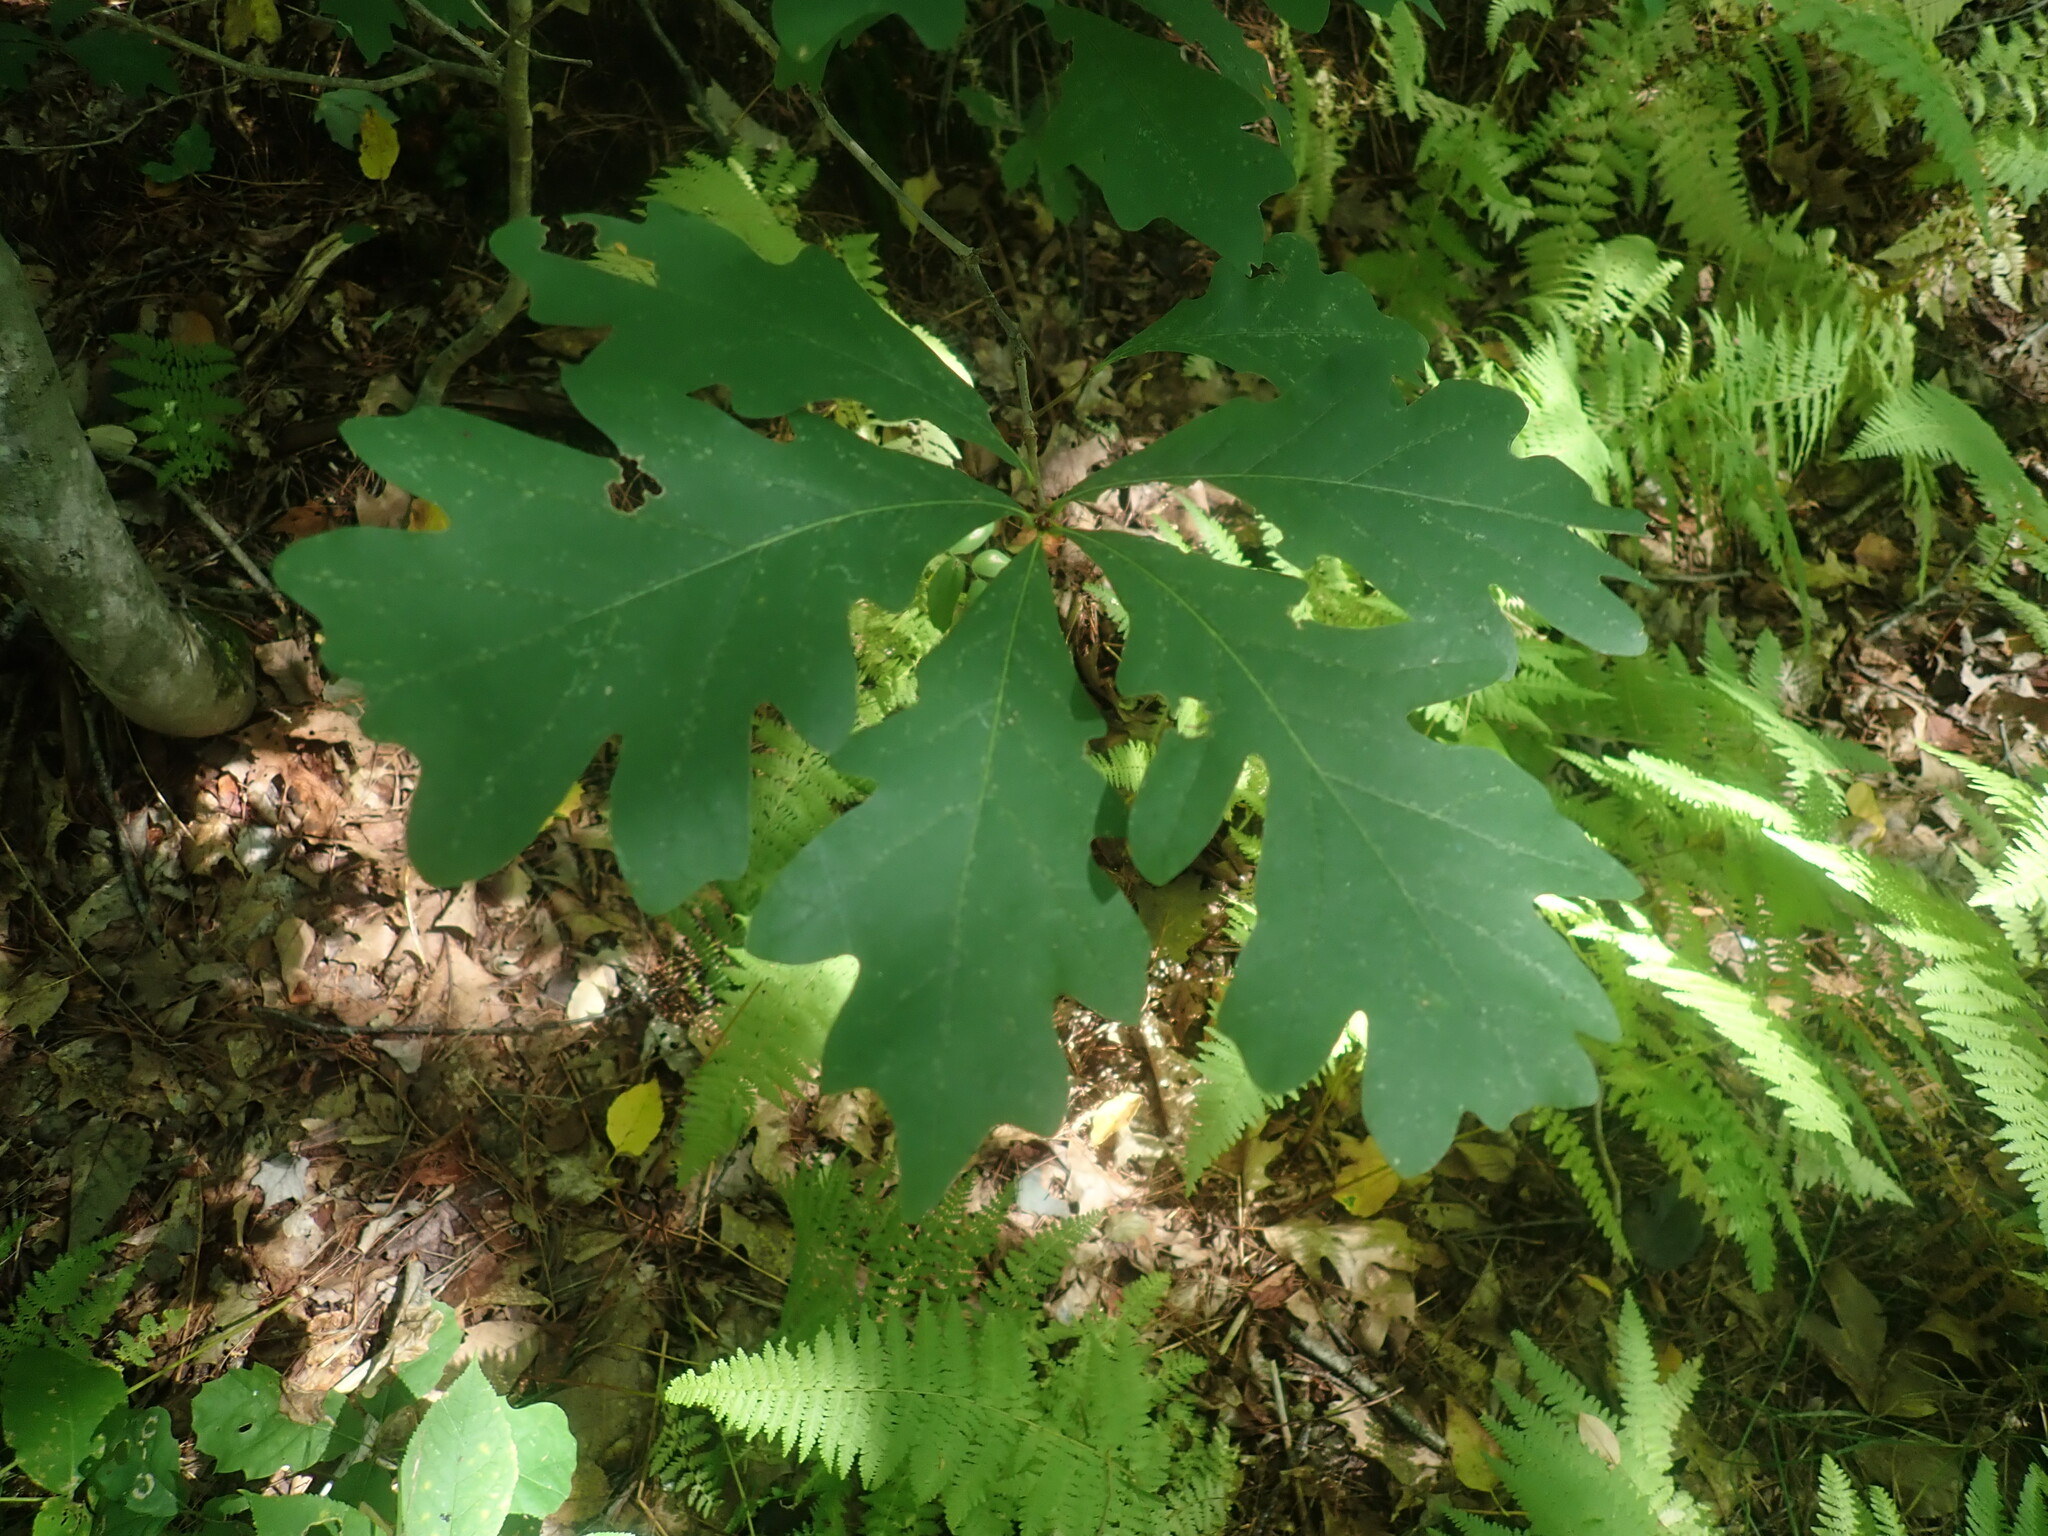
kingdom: Plantae
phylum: Tracheophyta
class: Magnoliopsida
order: Fagales
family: Fagaceae
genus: Quercus
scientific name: Quercus alba
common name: White oak
